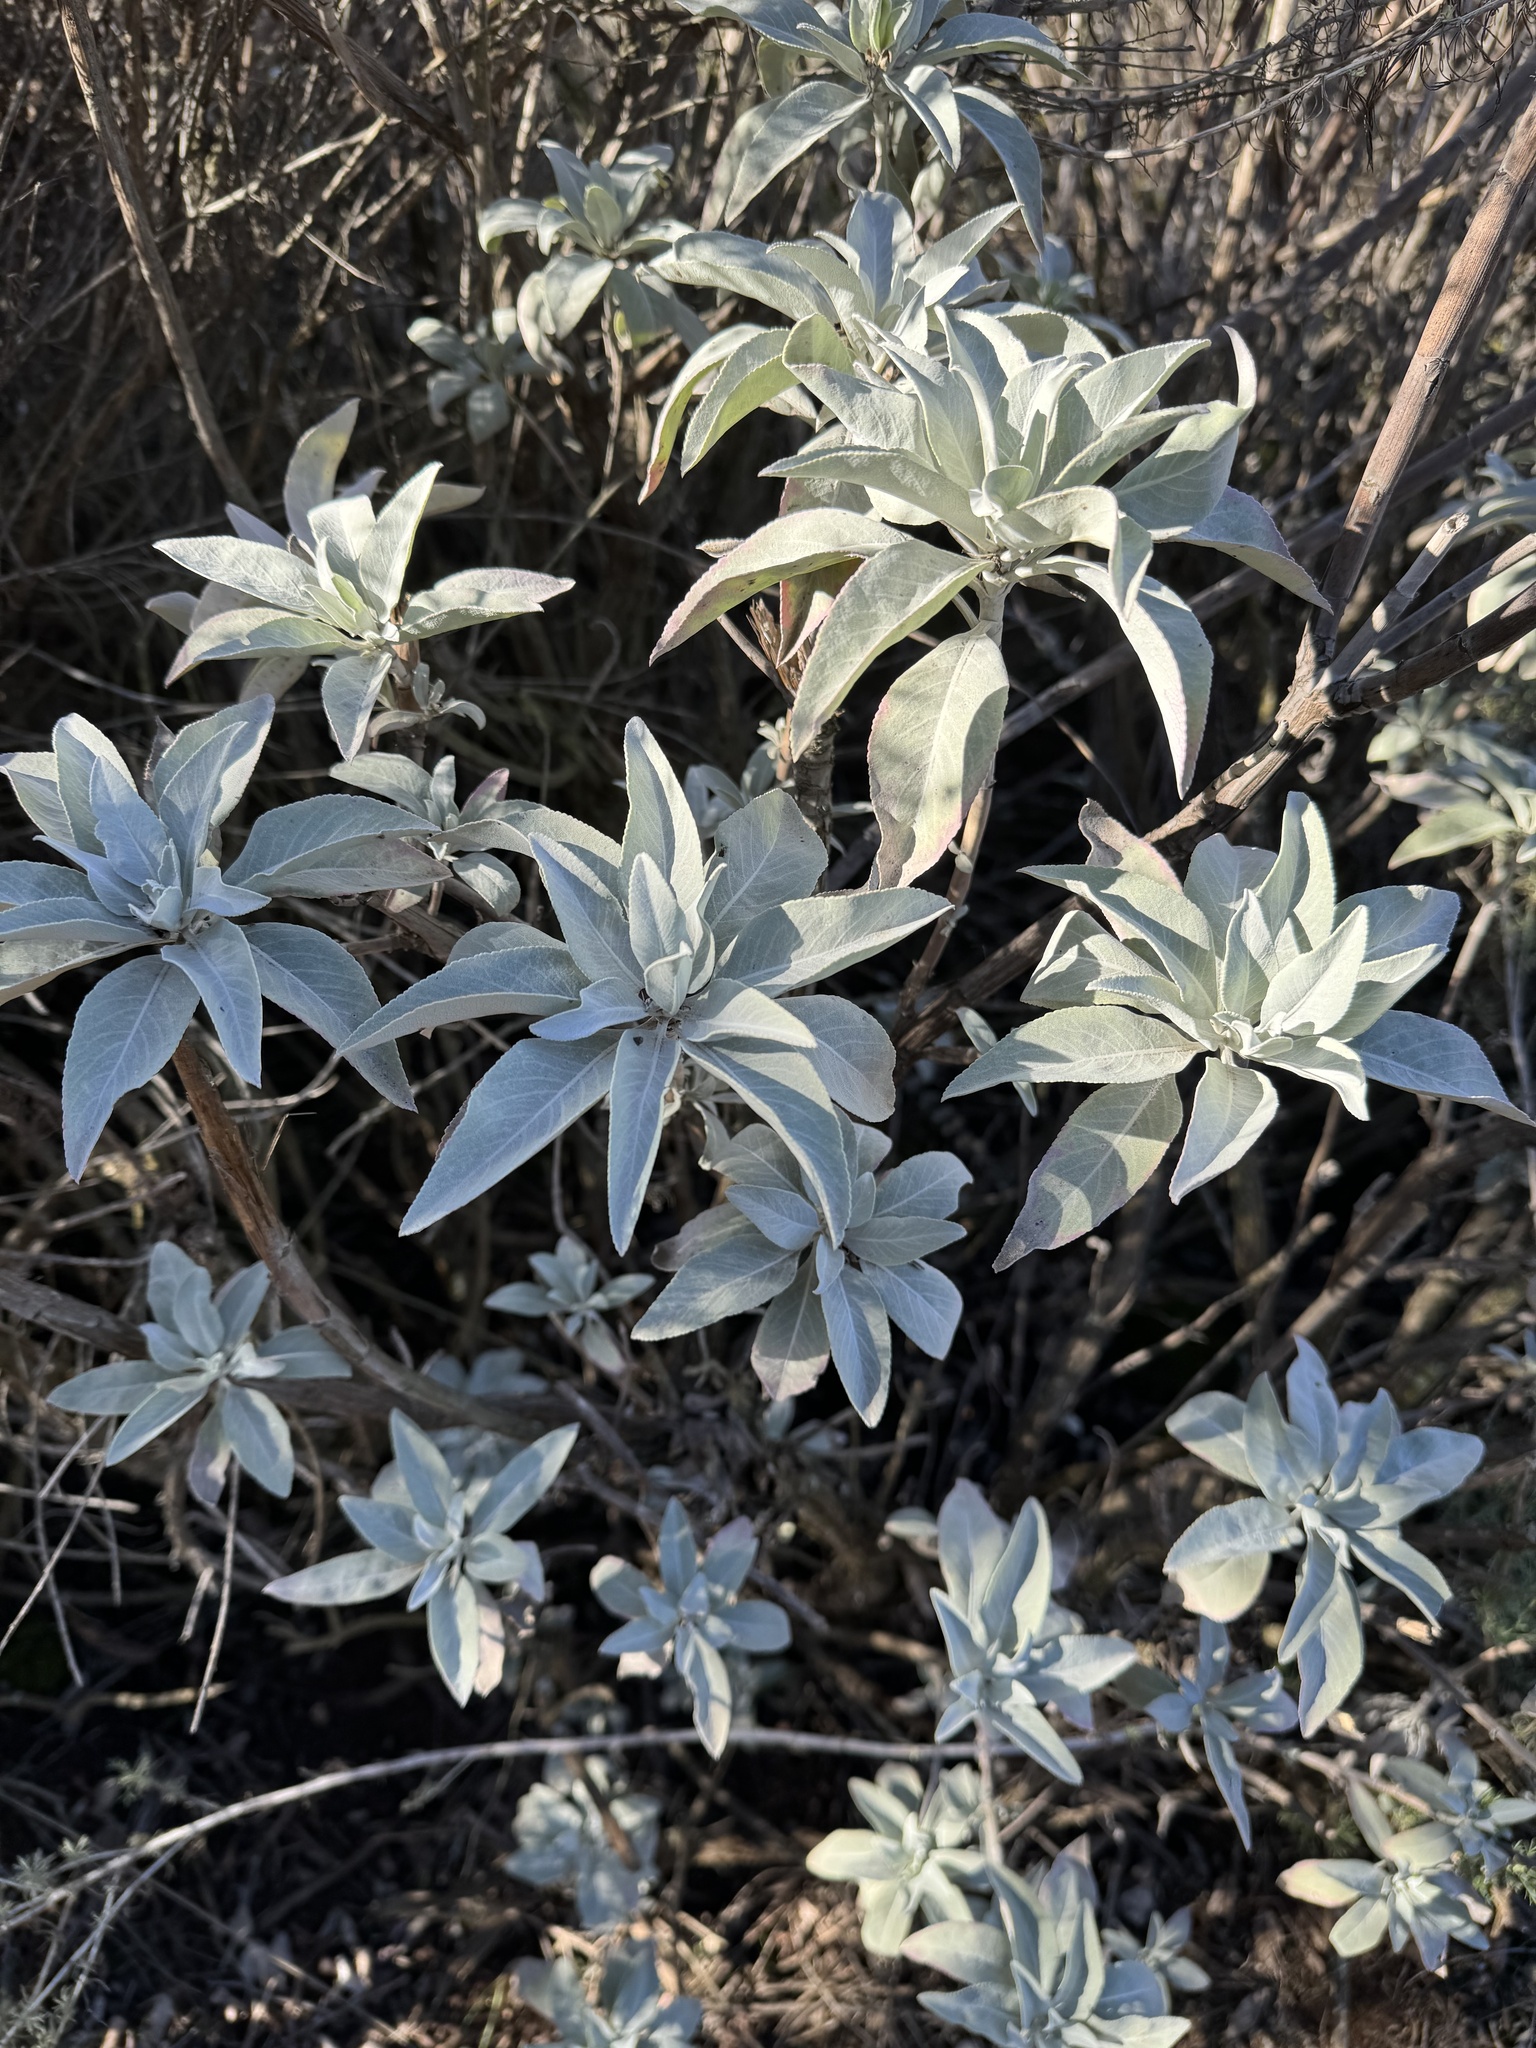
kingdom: Plantae
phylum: Tracheophyta
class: Magnoliopsida
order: Lamiales
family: Lamiaceae
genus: Salvia
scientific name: Salvia apiana
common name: White sage
